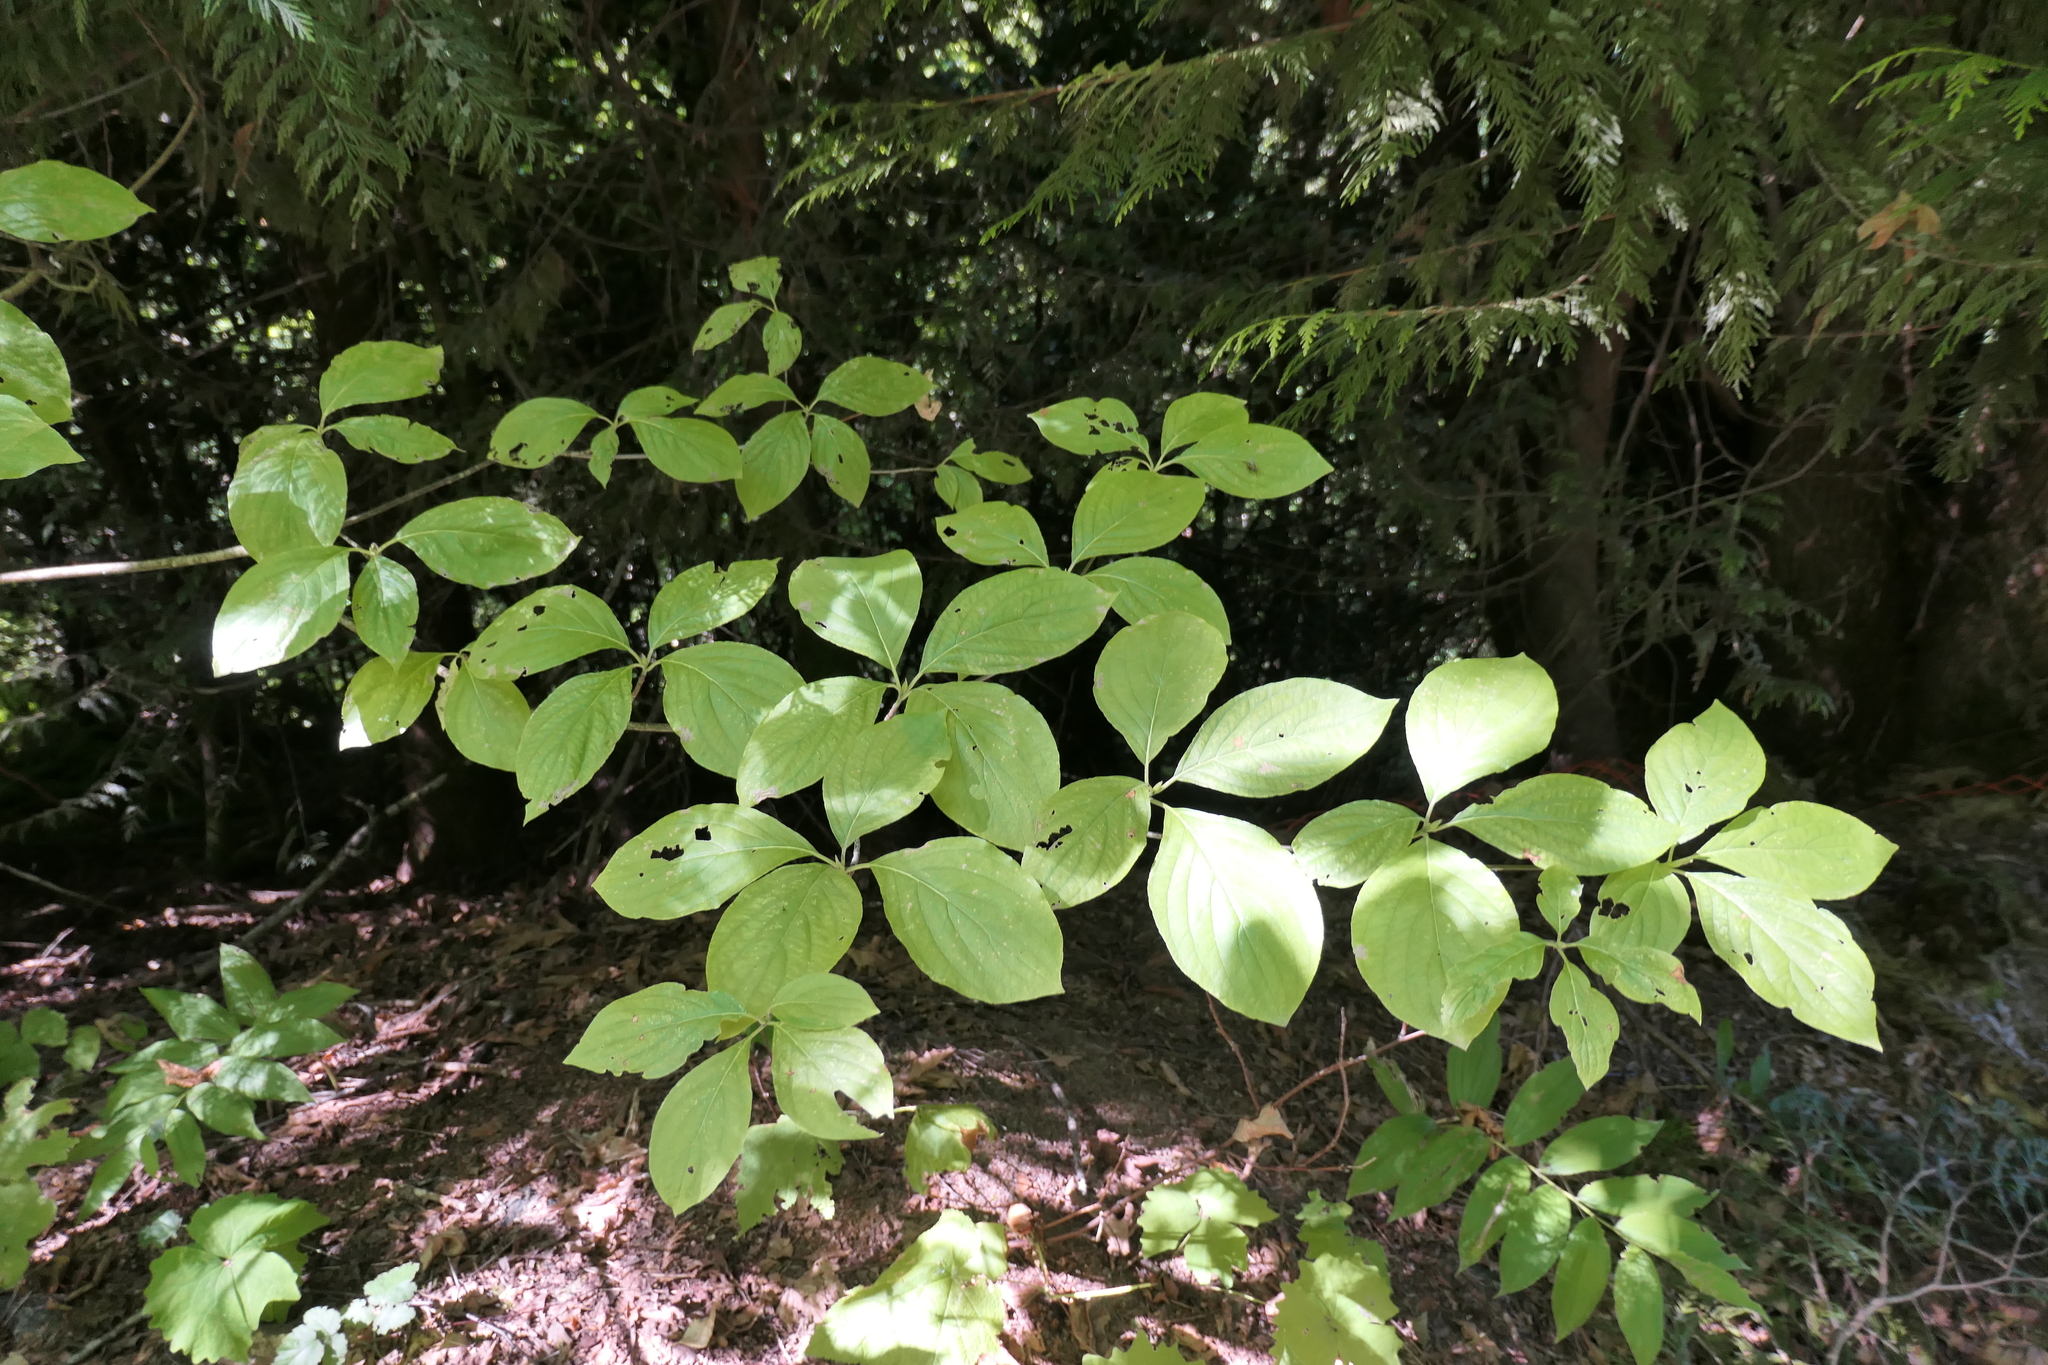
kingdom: Plantae
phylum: Tracheophyta
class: Magnoliopsida
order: Cornales
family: Cornaceae
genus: Cornus
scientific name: Cornus nuttallii
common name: Pacific dogwood
